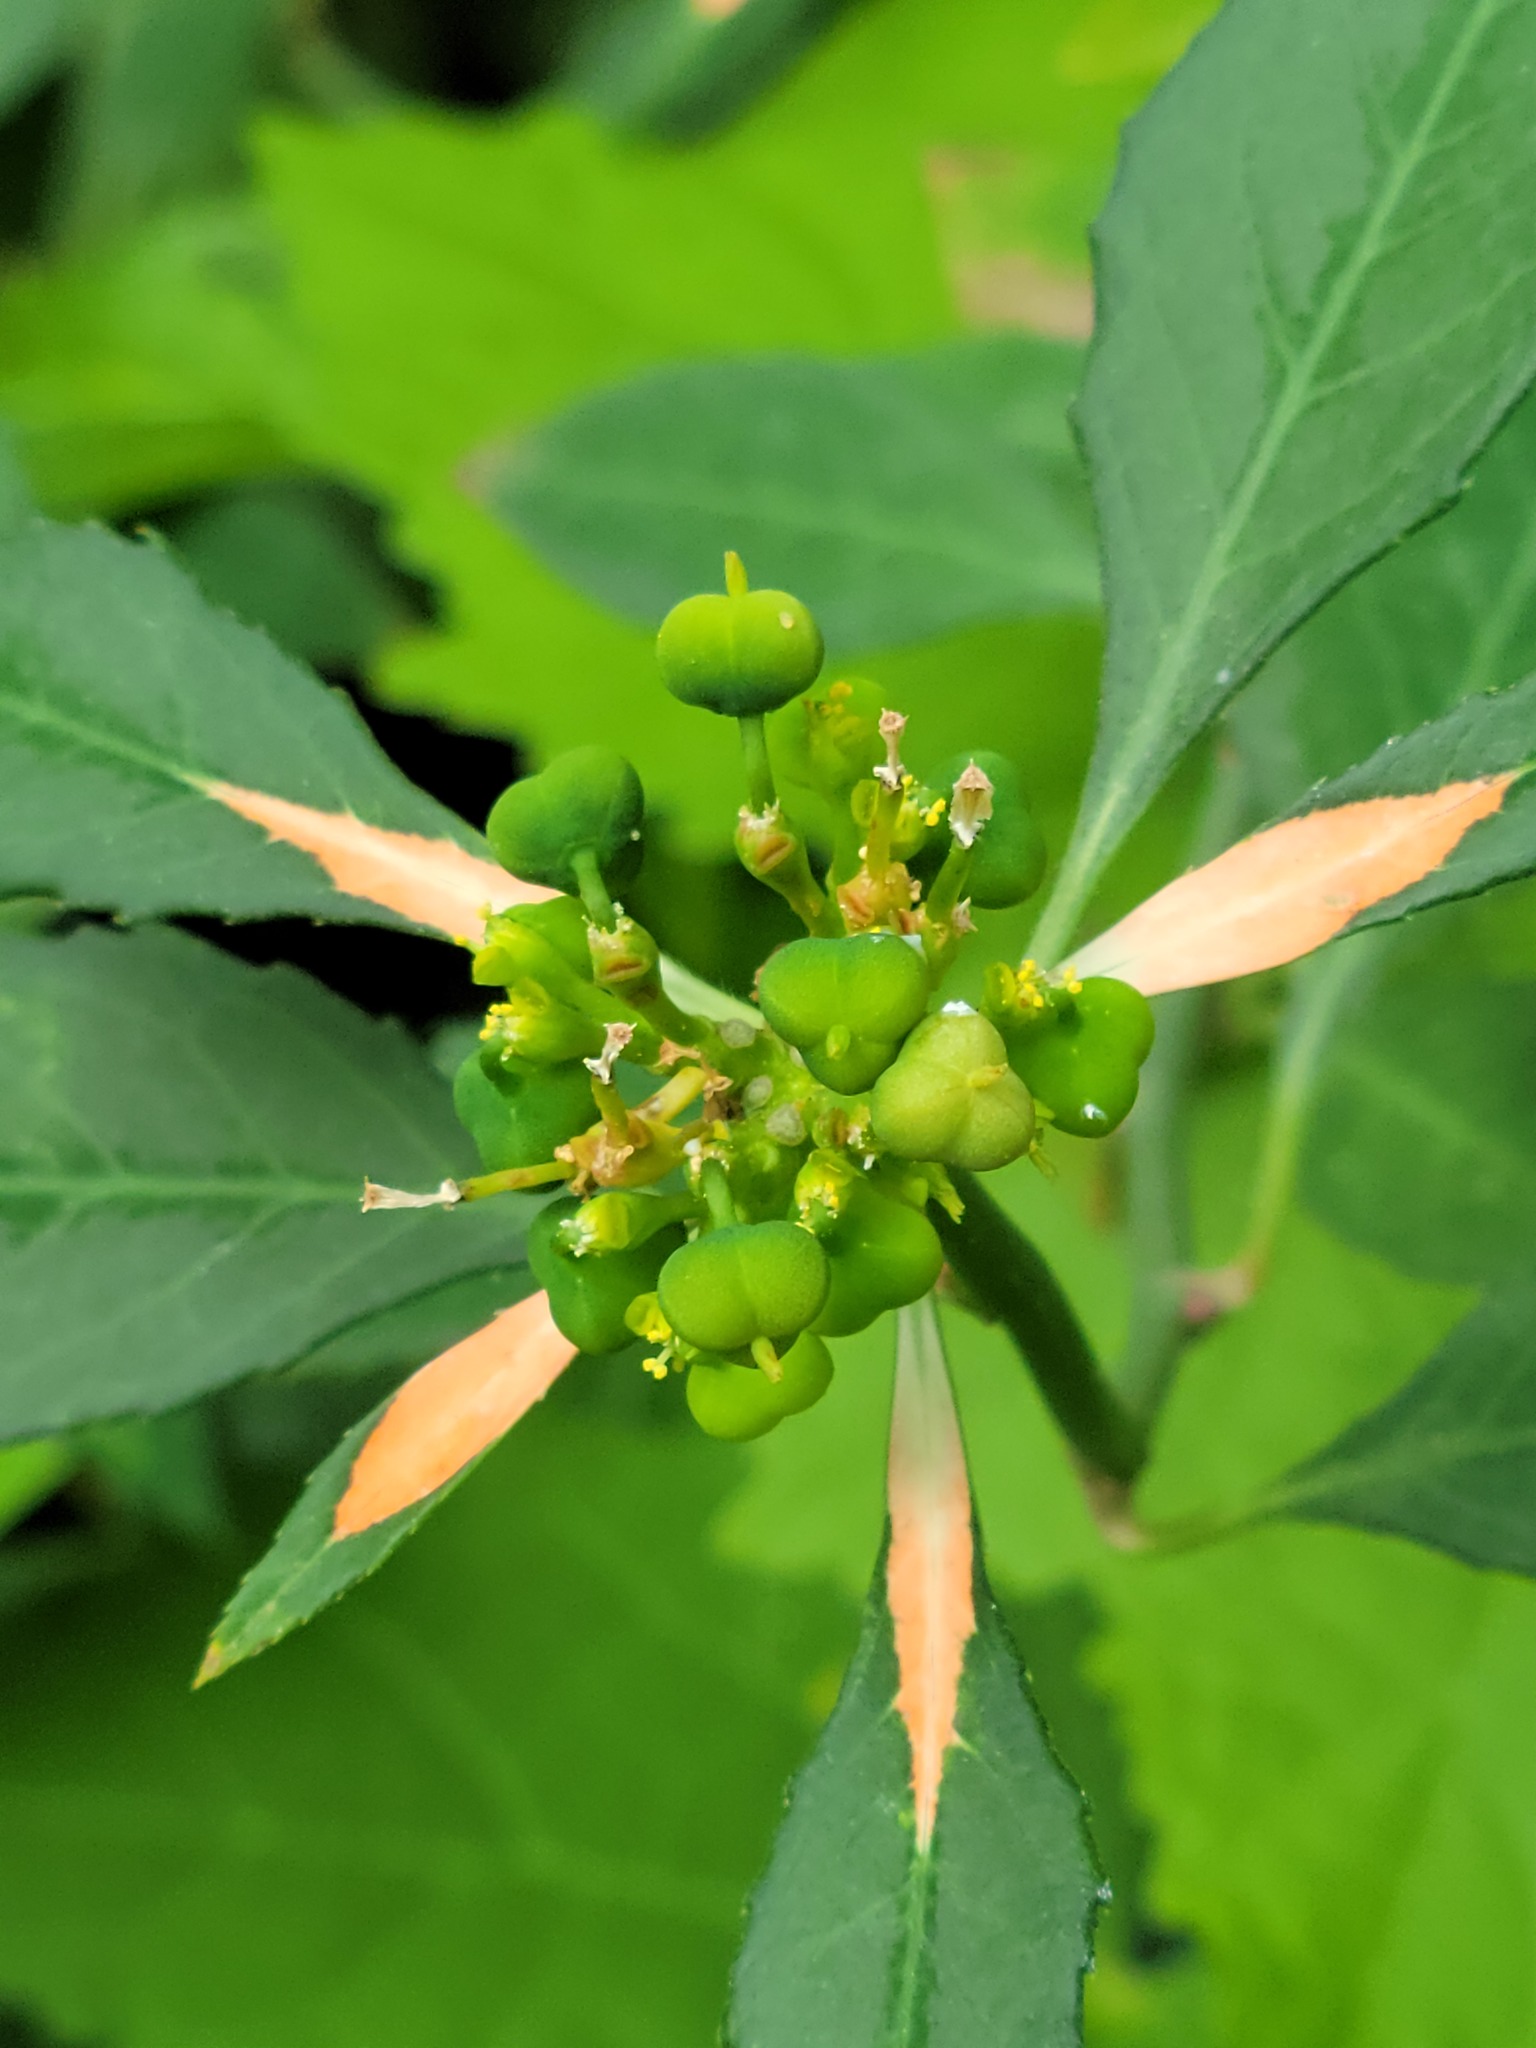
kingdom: Plantae
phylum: Tracheophyta
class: Magnoliopsida
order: Malpighiales
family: Euphorbiaceae
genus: Euphorbia
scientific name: Euphorbia heterophylla
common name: Mexican fireplant
